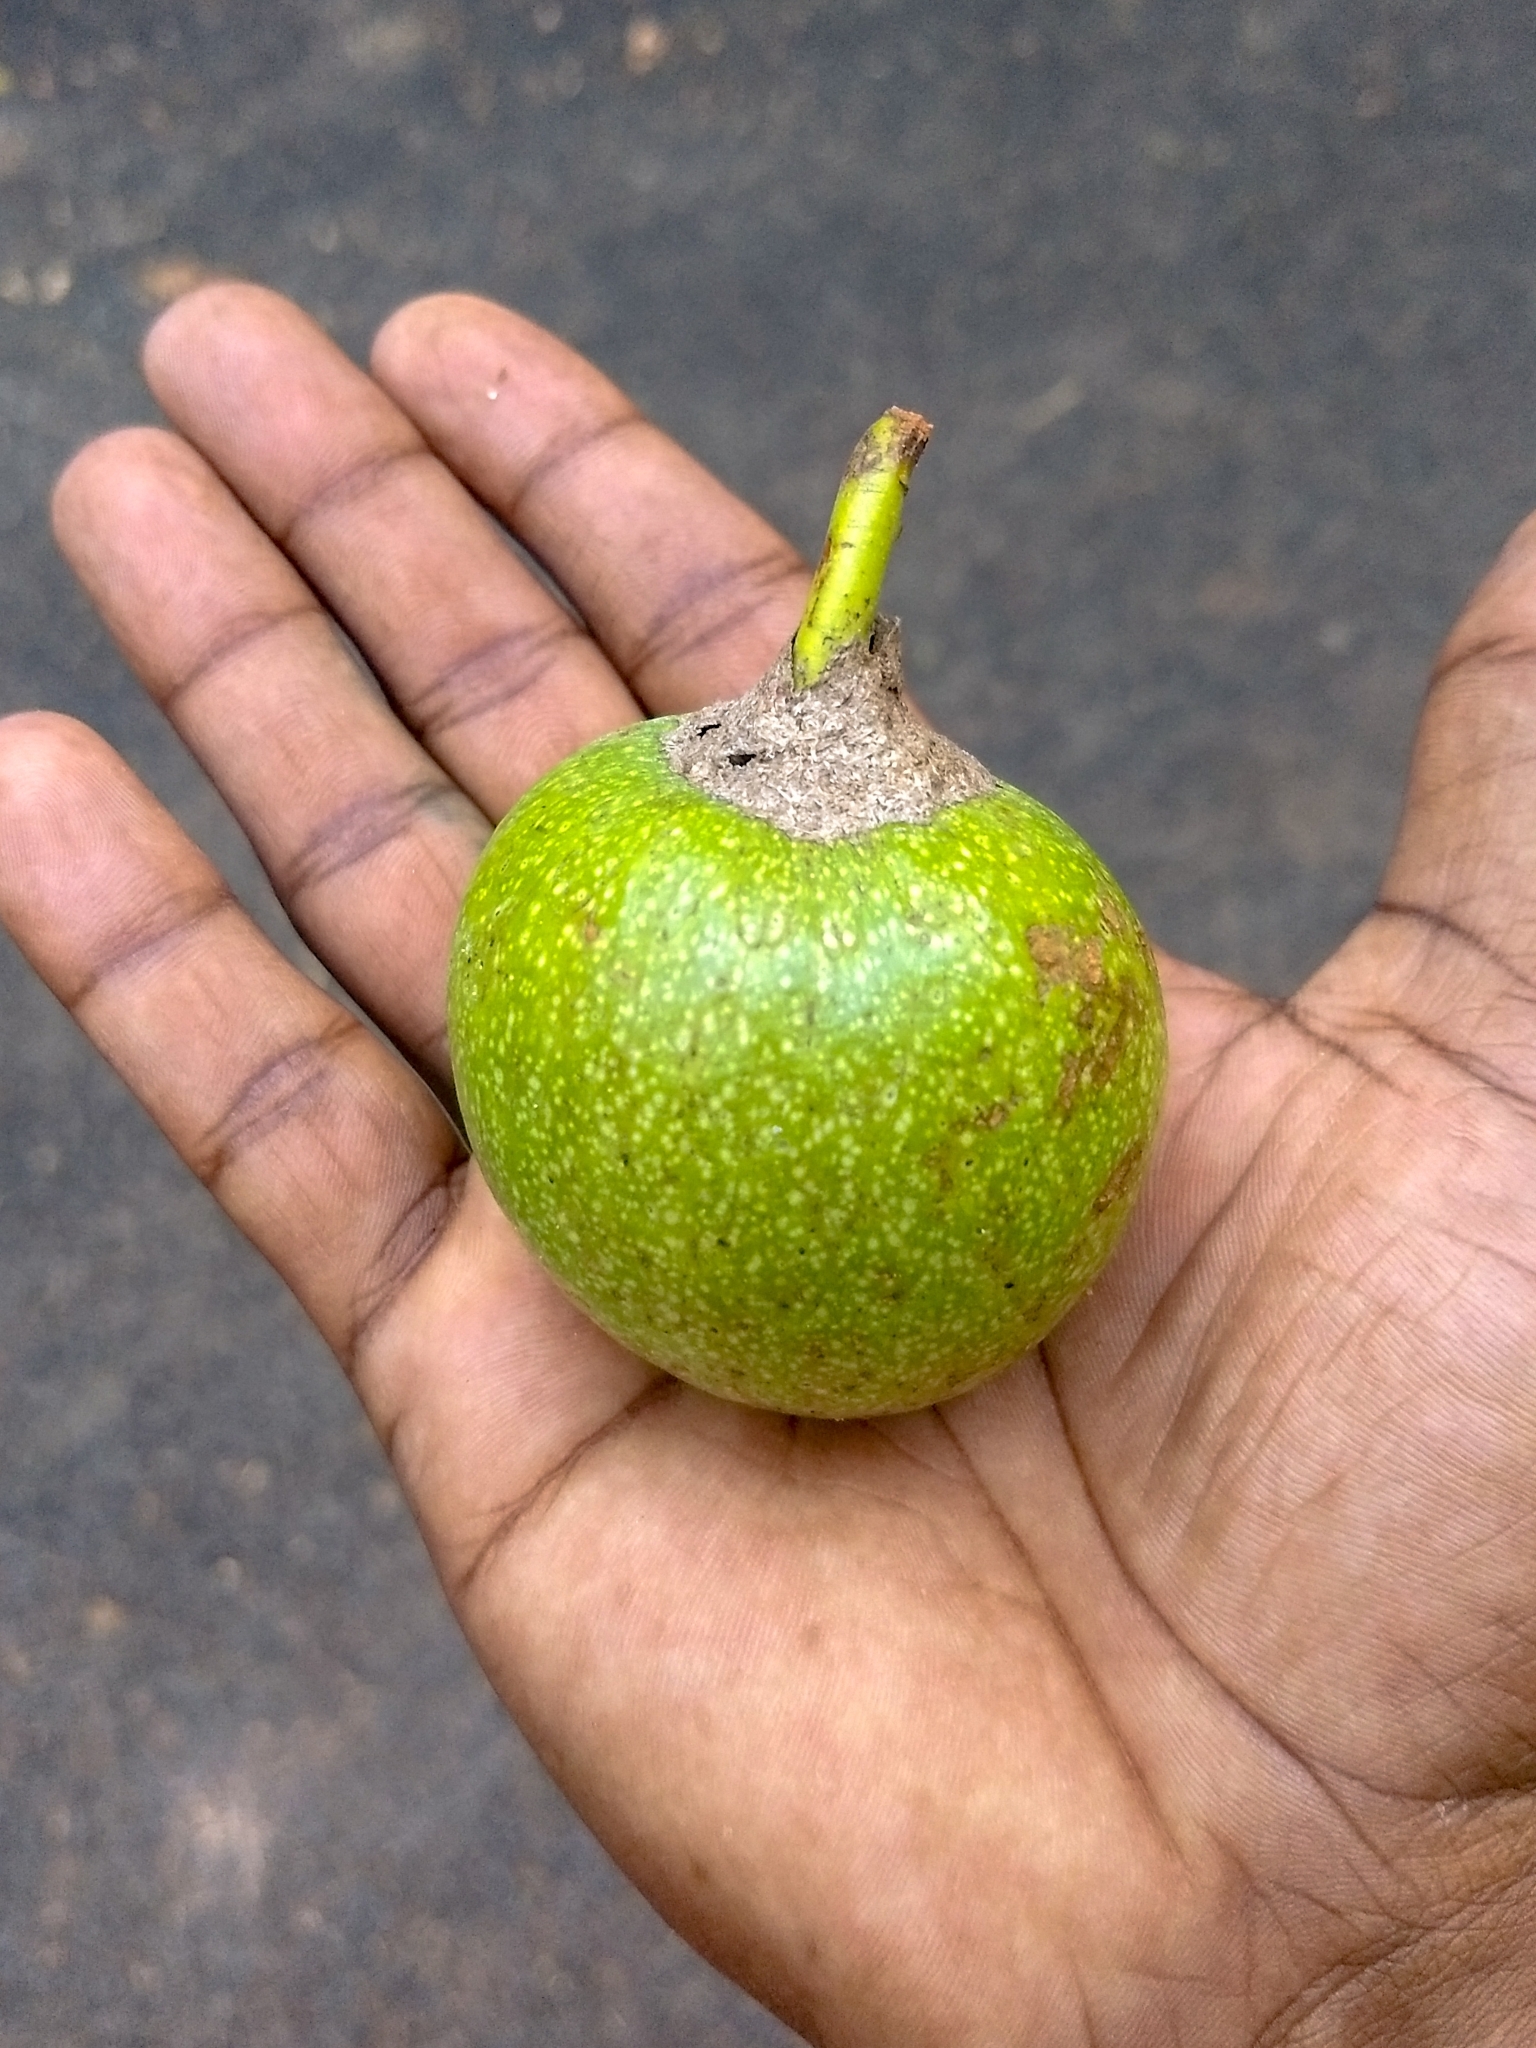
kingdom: Plantae
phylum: Tracheophyta
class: Magnoliopsida
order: Magnoliales
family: Annonaceae
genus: Annona
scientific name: Annona glabra
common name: Monkey apple
